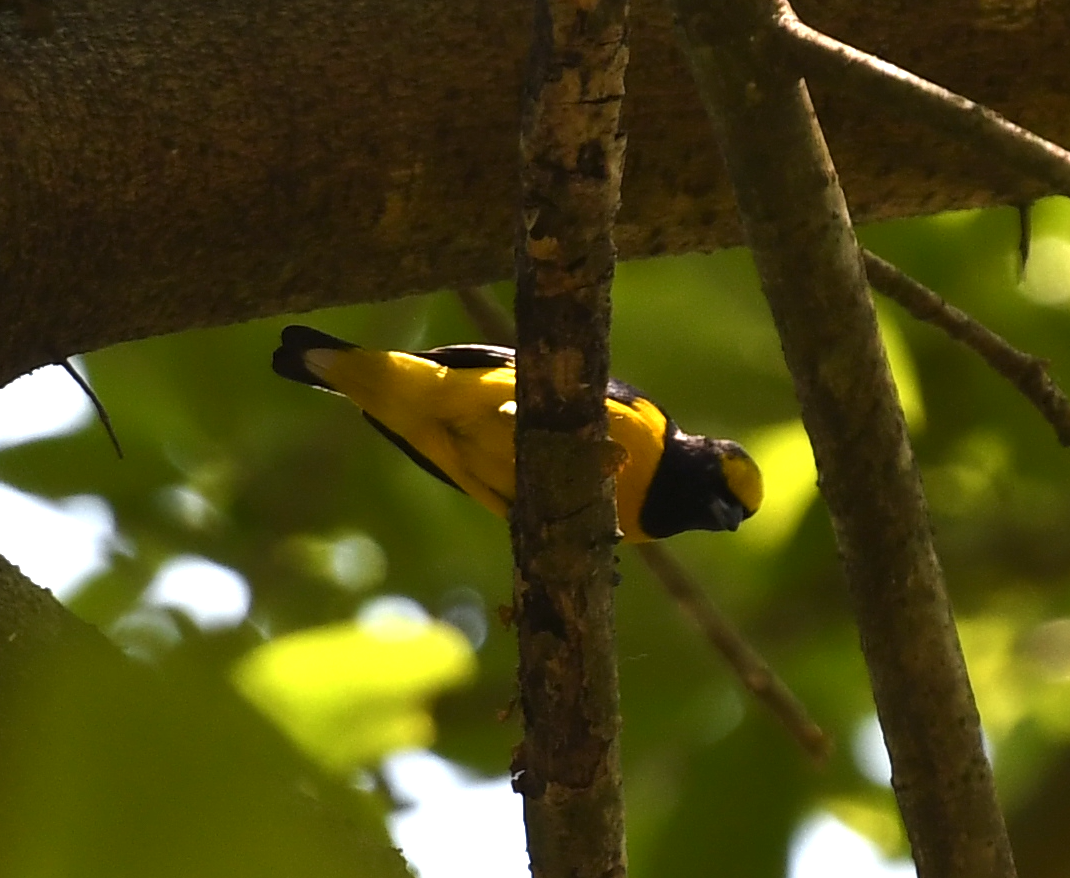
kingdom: Animalia
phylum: Chordata
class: Aves
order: Passeriformes
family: Fringillidae
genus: Euphonia
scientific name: Euphonia affinis
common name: Scrub euphonia
